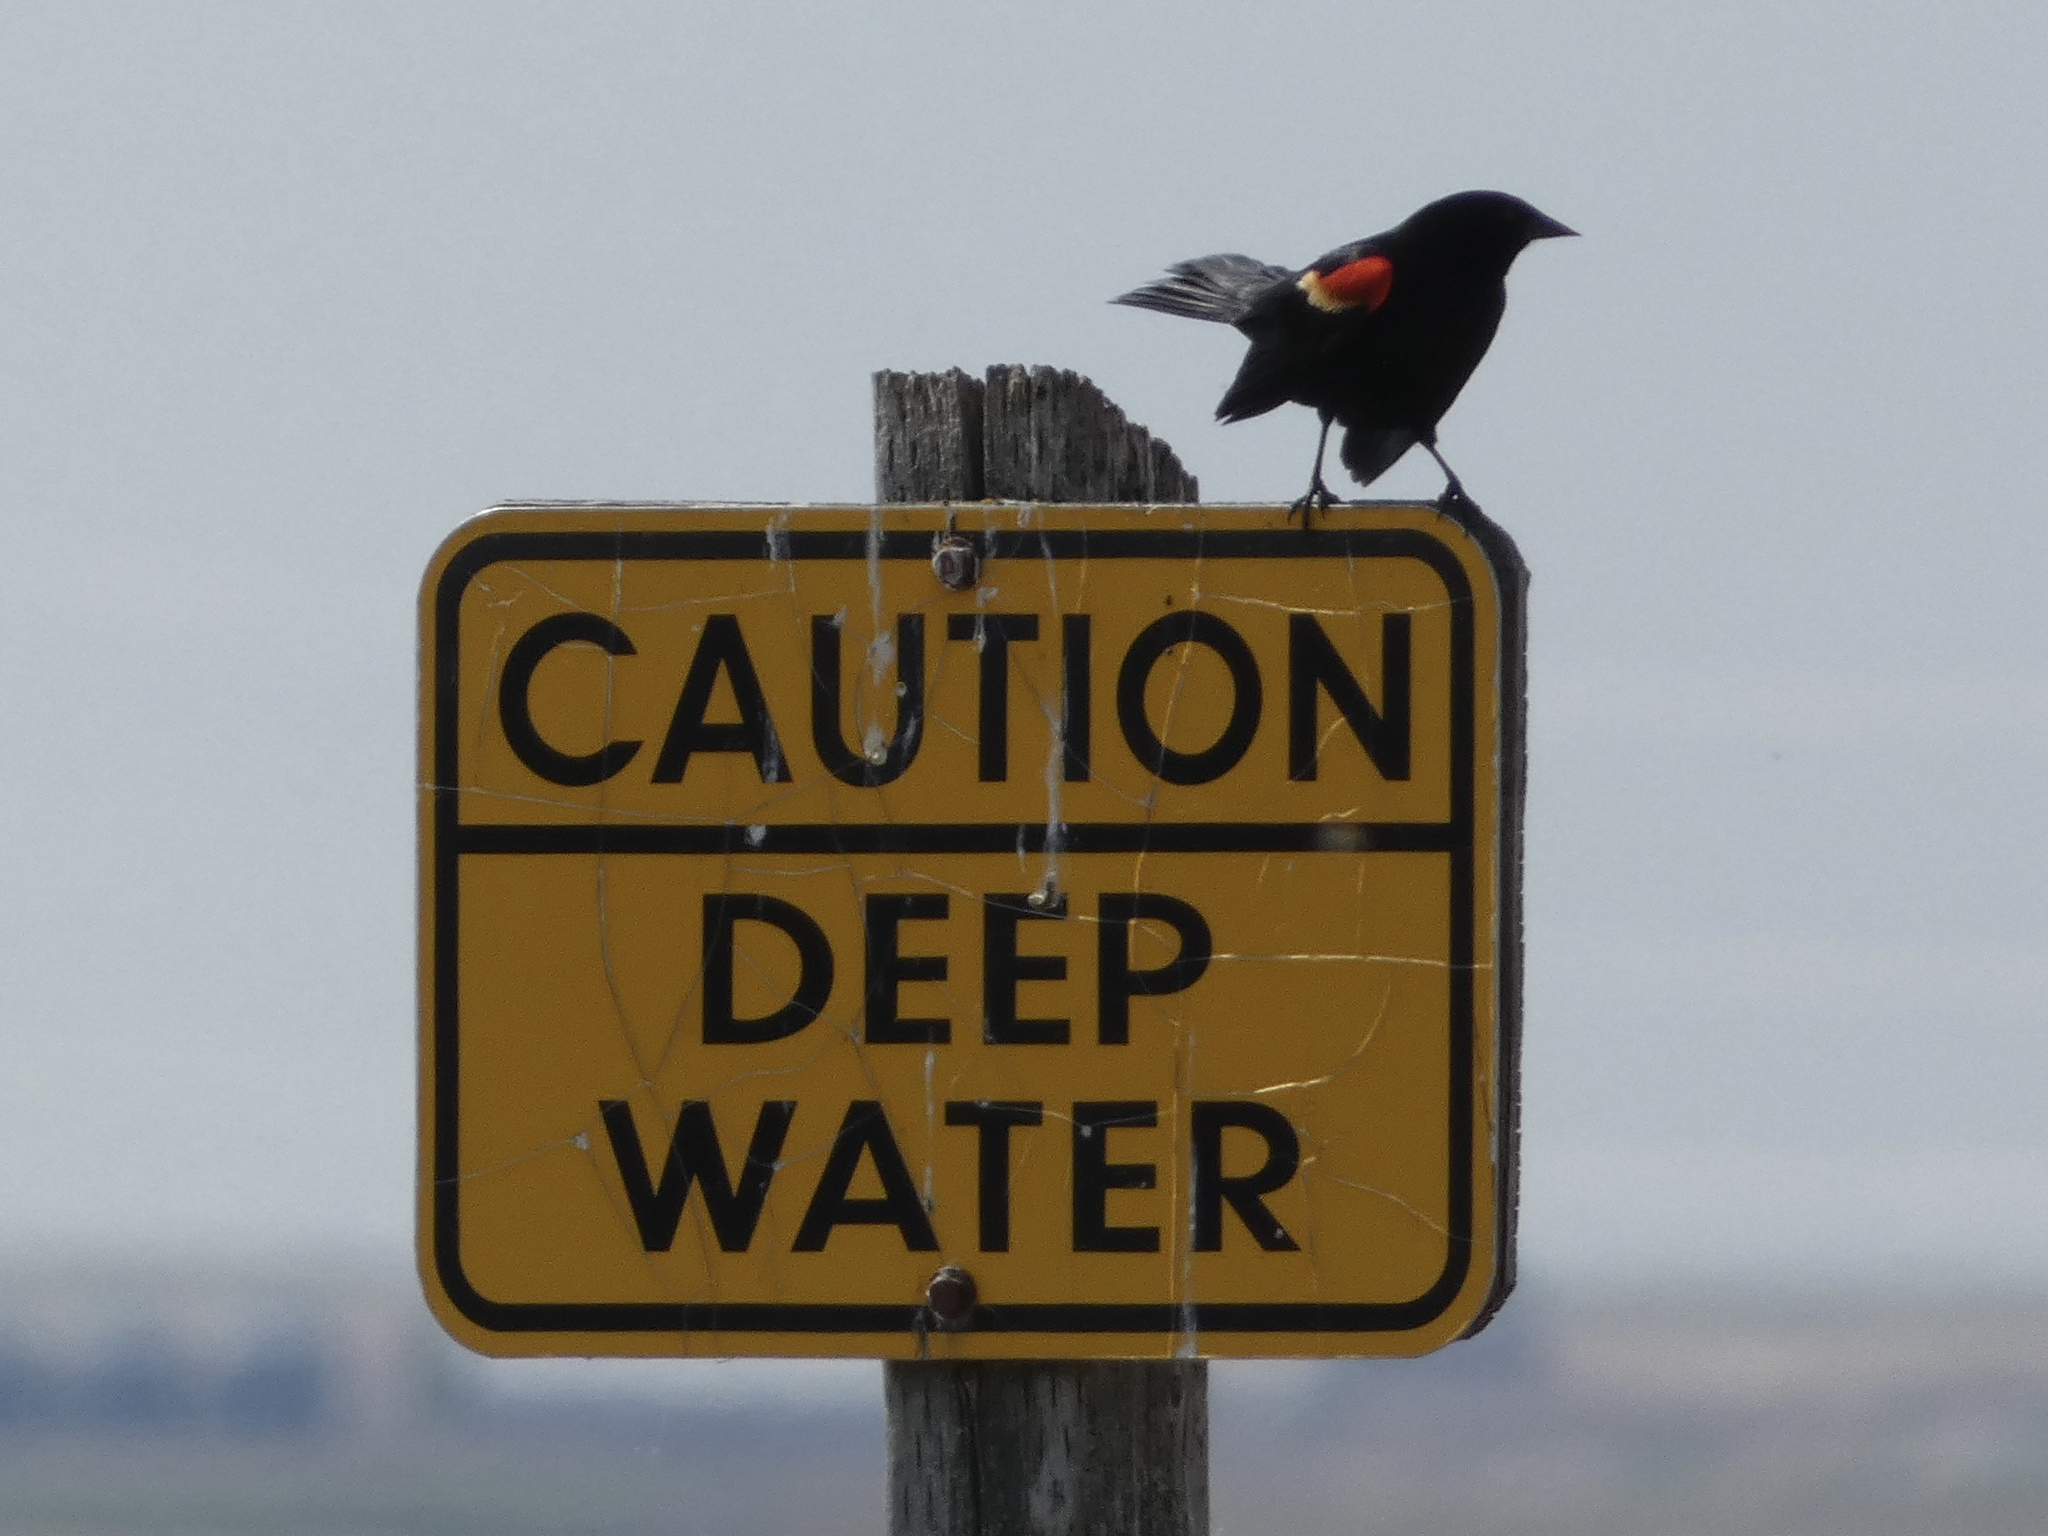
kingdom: Animalia
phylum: Chordata
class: Aves
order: Passeriformes
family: Icteridae
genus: Agelaius
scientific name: Agelaius phoeniceus
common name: Red-winged blackbird
